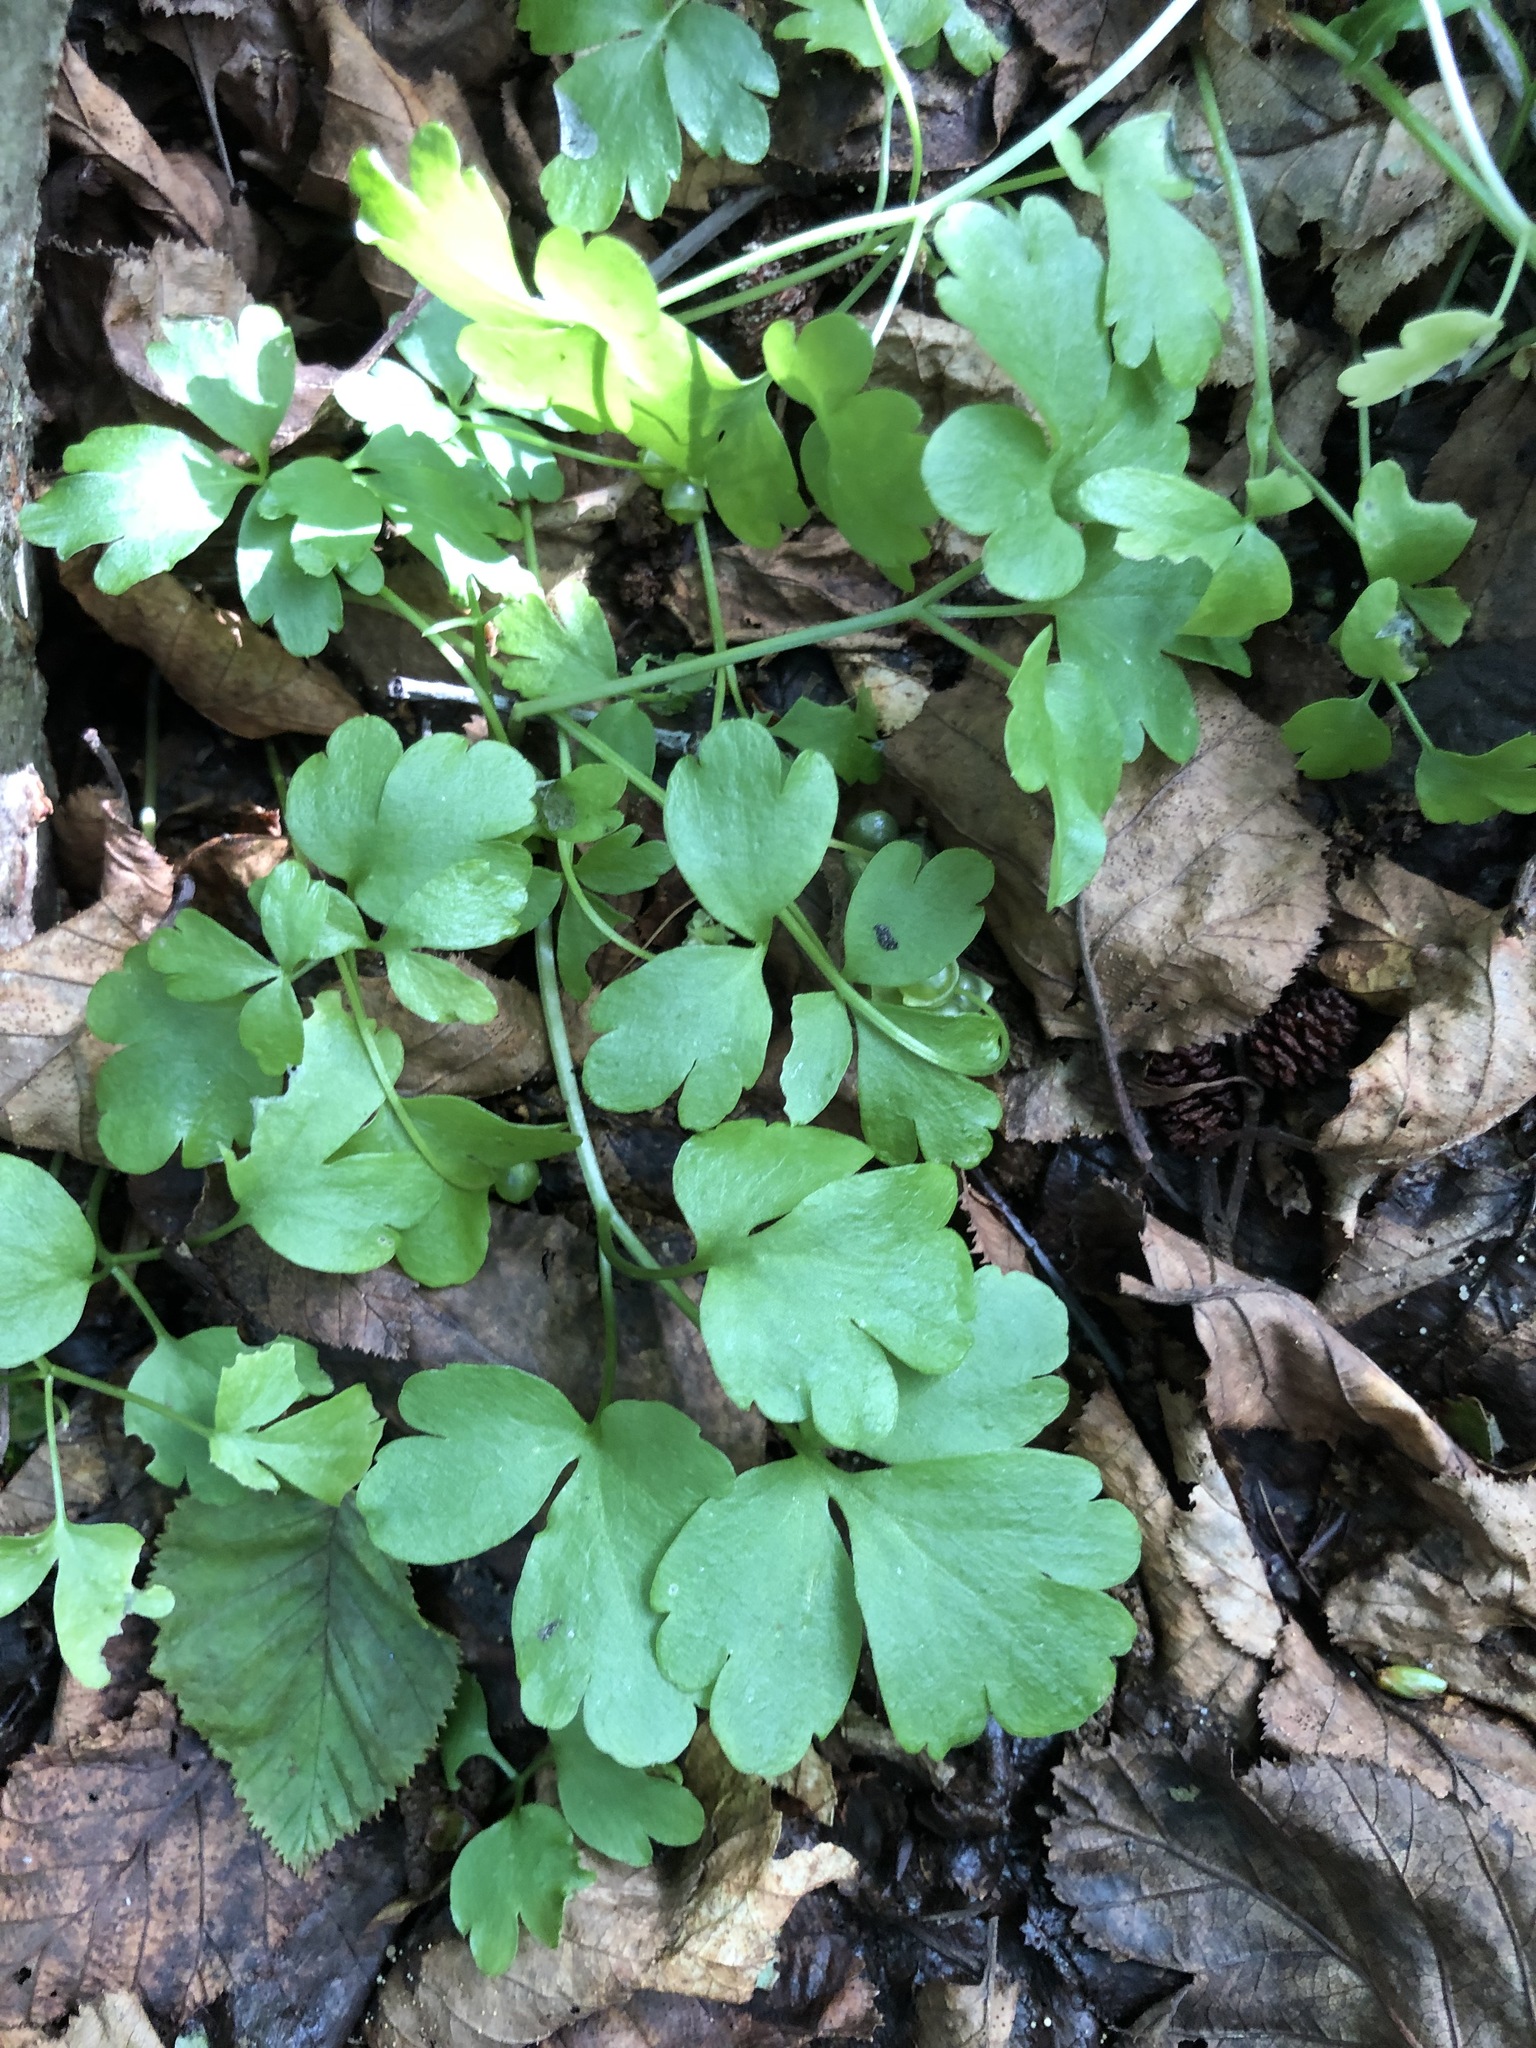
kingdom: Plantae
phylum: Tracheophyta
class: Magnoliopsida
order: Dipsacales
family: Viburnaceae
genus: Adoxa
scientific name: Adoxa moschatellina
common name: Moschatel
